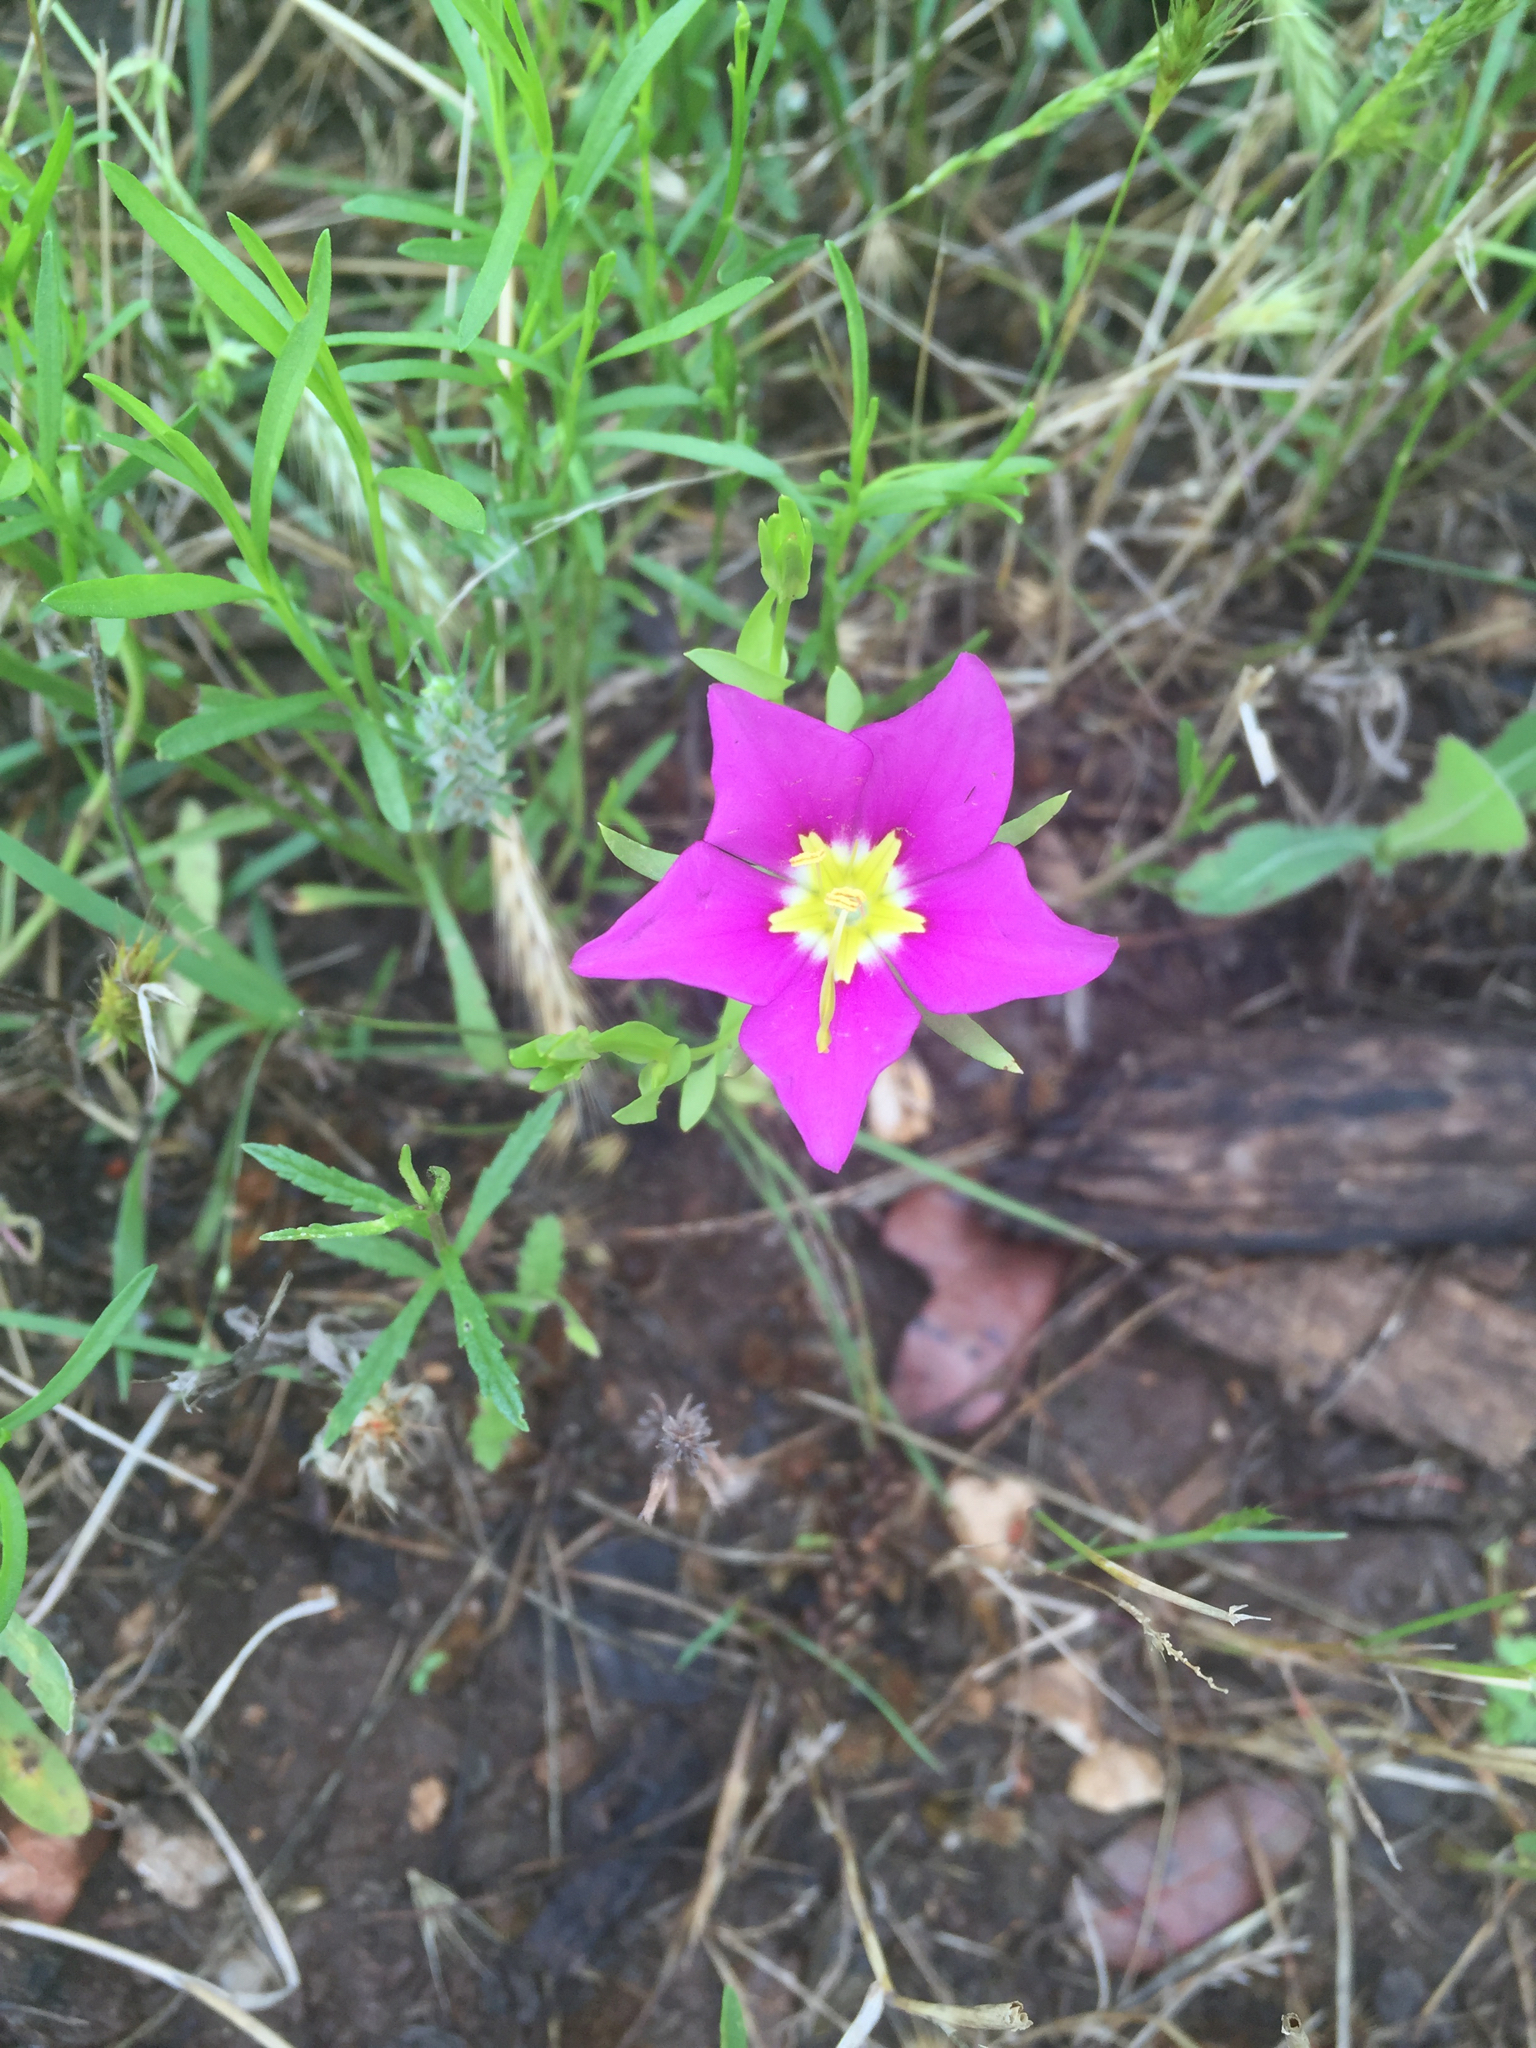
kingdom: Plantae
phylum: Tracheophyta
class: Magnoliopsida
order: Gentianales
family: Gentianaceae
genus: Sabatia
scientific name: Sabatia campestris
